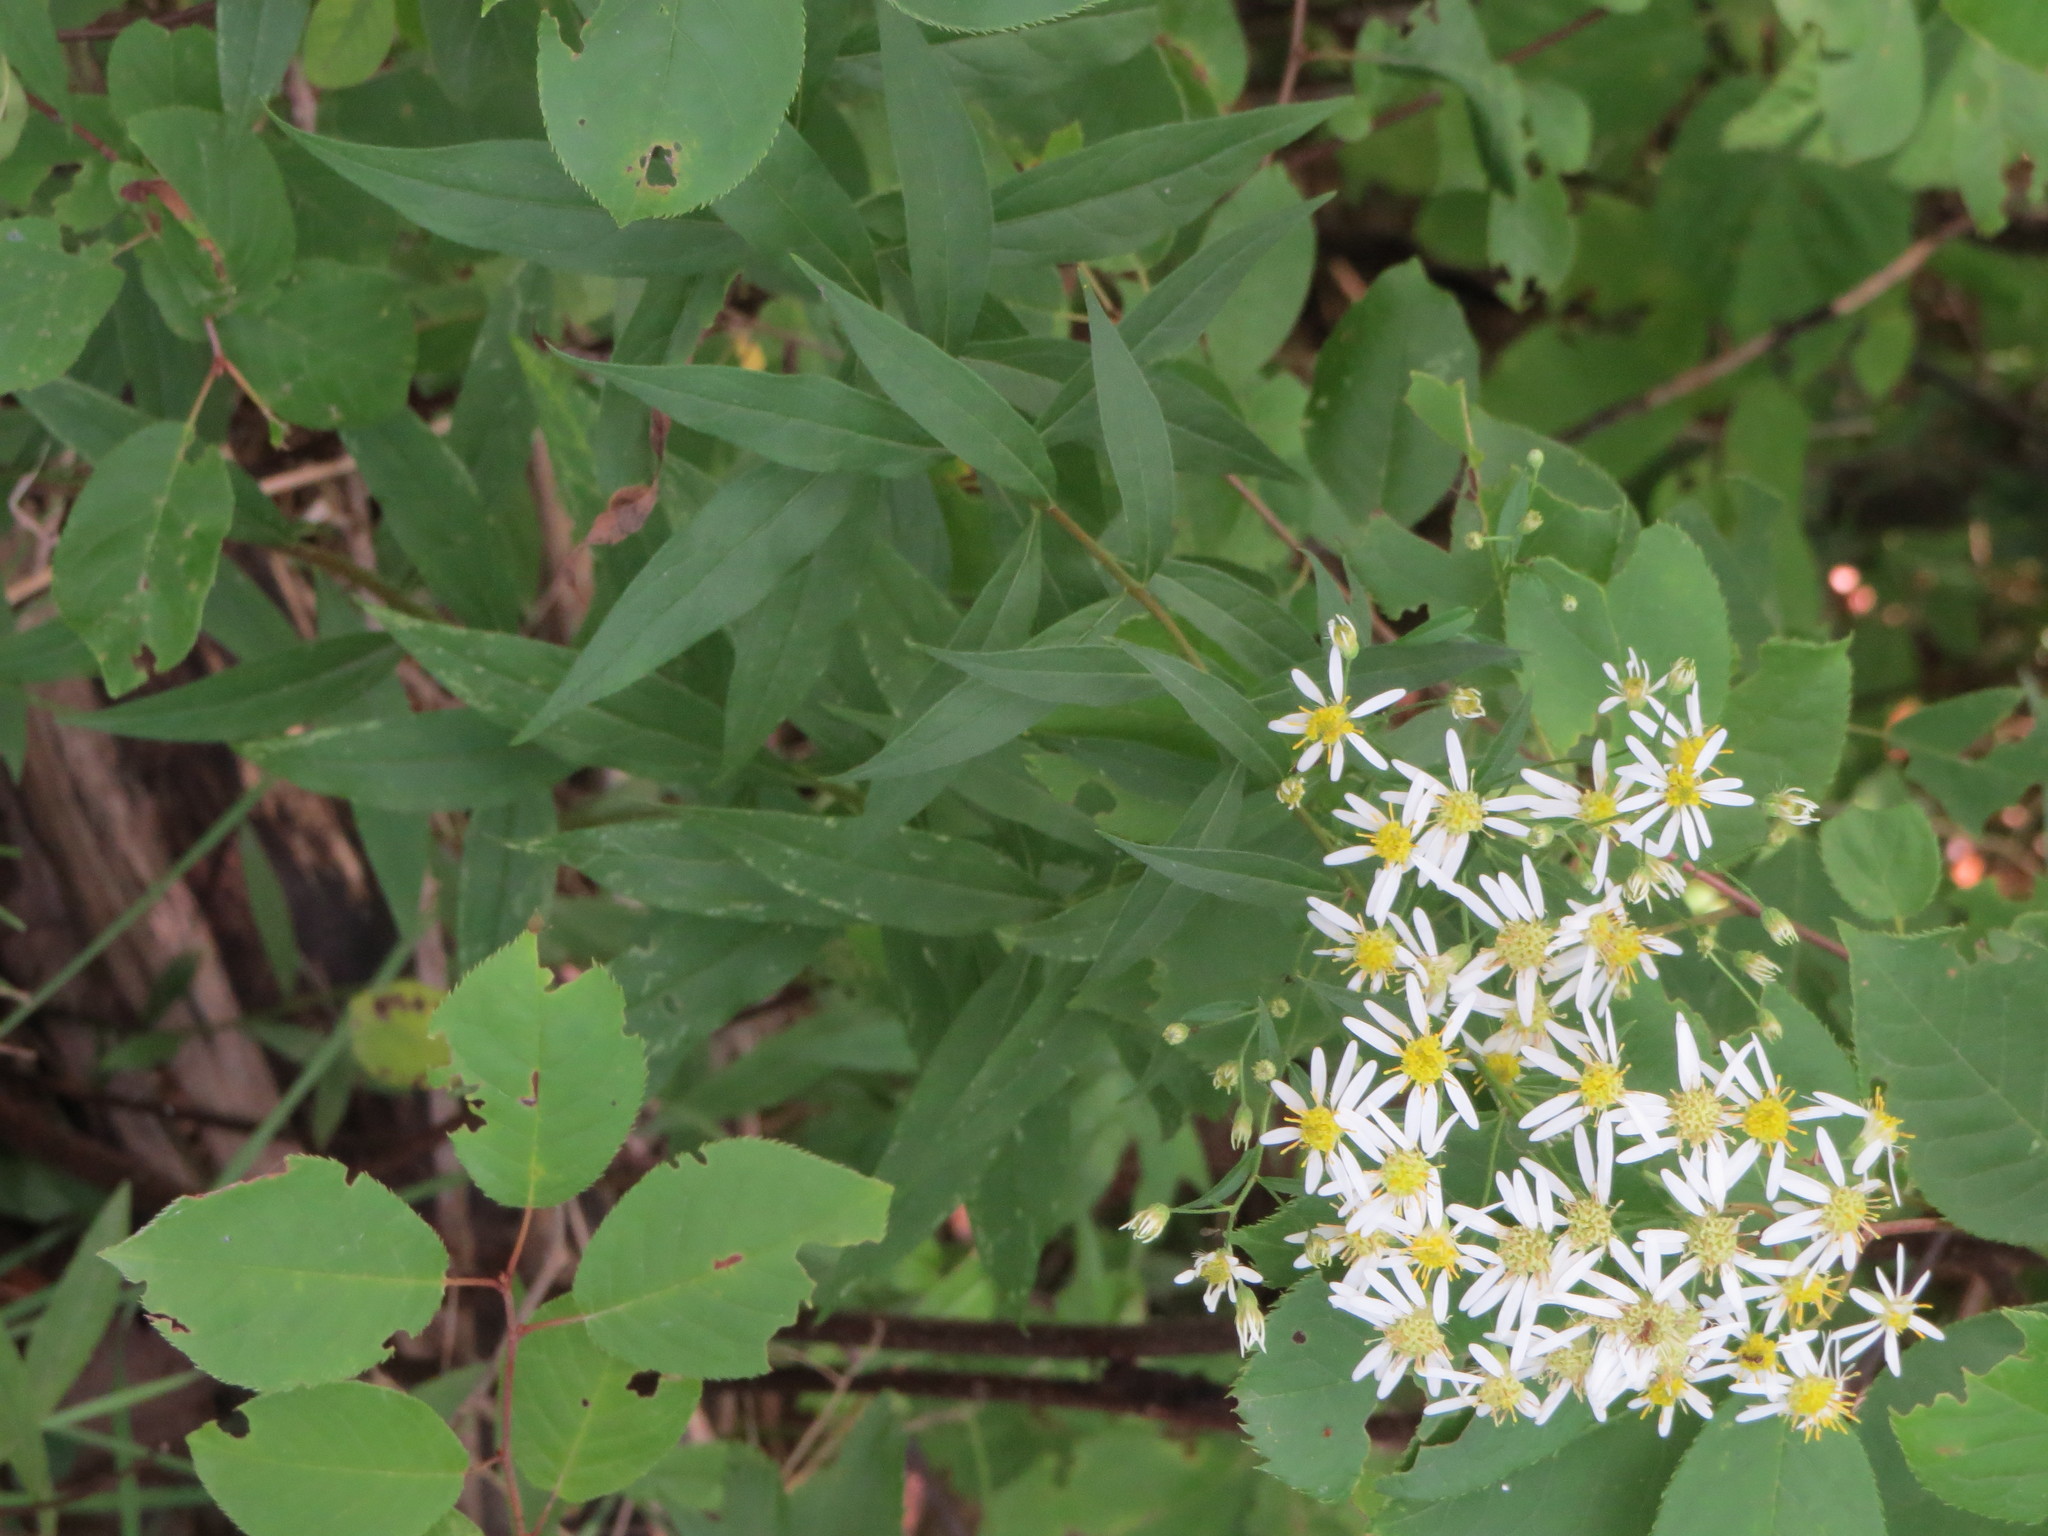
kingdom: Plantae
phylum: Tracheophyta
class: Magnoliopsida
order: Asterales
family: Asteraceae
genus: Doellingeria
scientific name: Doellingeria umbellata
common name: Flat-top white aster
